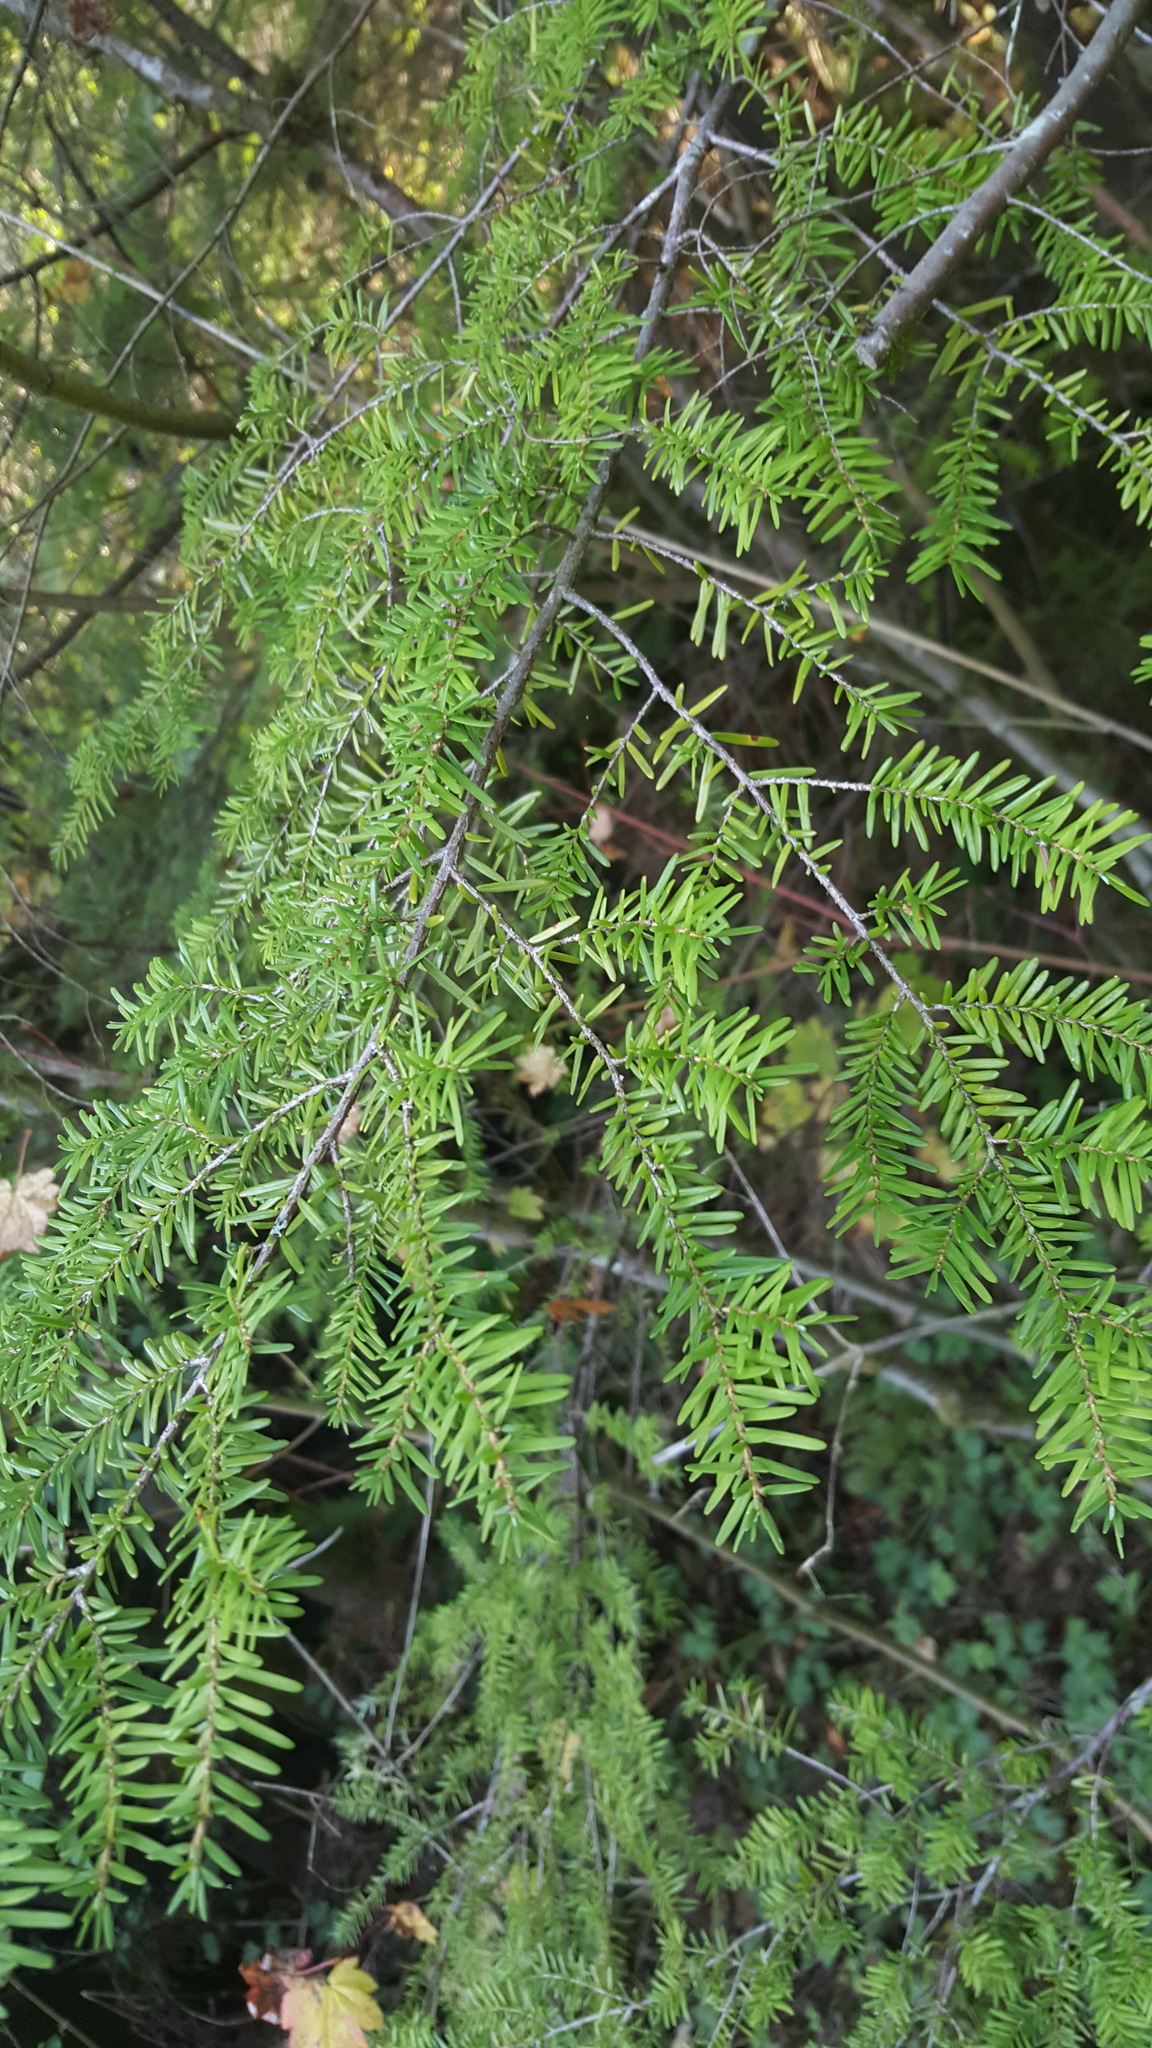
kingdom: Plantae
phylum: Tracheophyta
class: Pinopsida
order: Pinales
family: Pinaceae
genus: Tsuga
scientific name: Tsuga heterophylla
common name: Western hemlock
